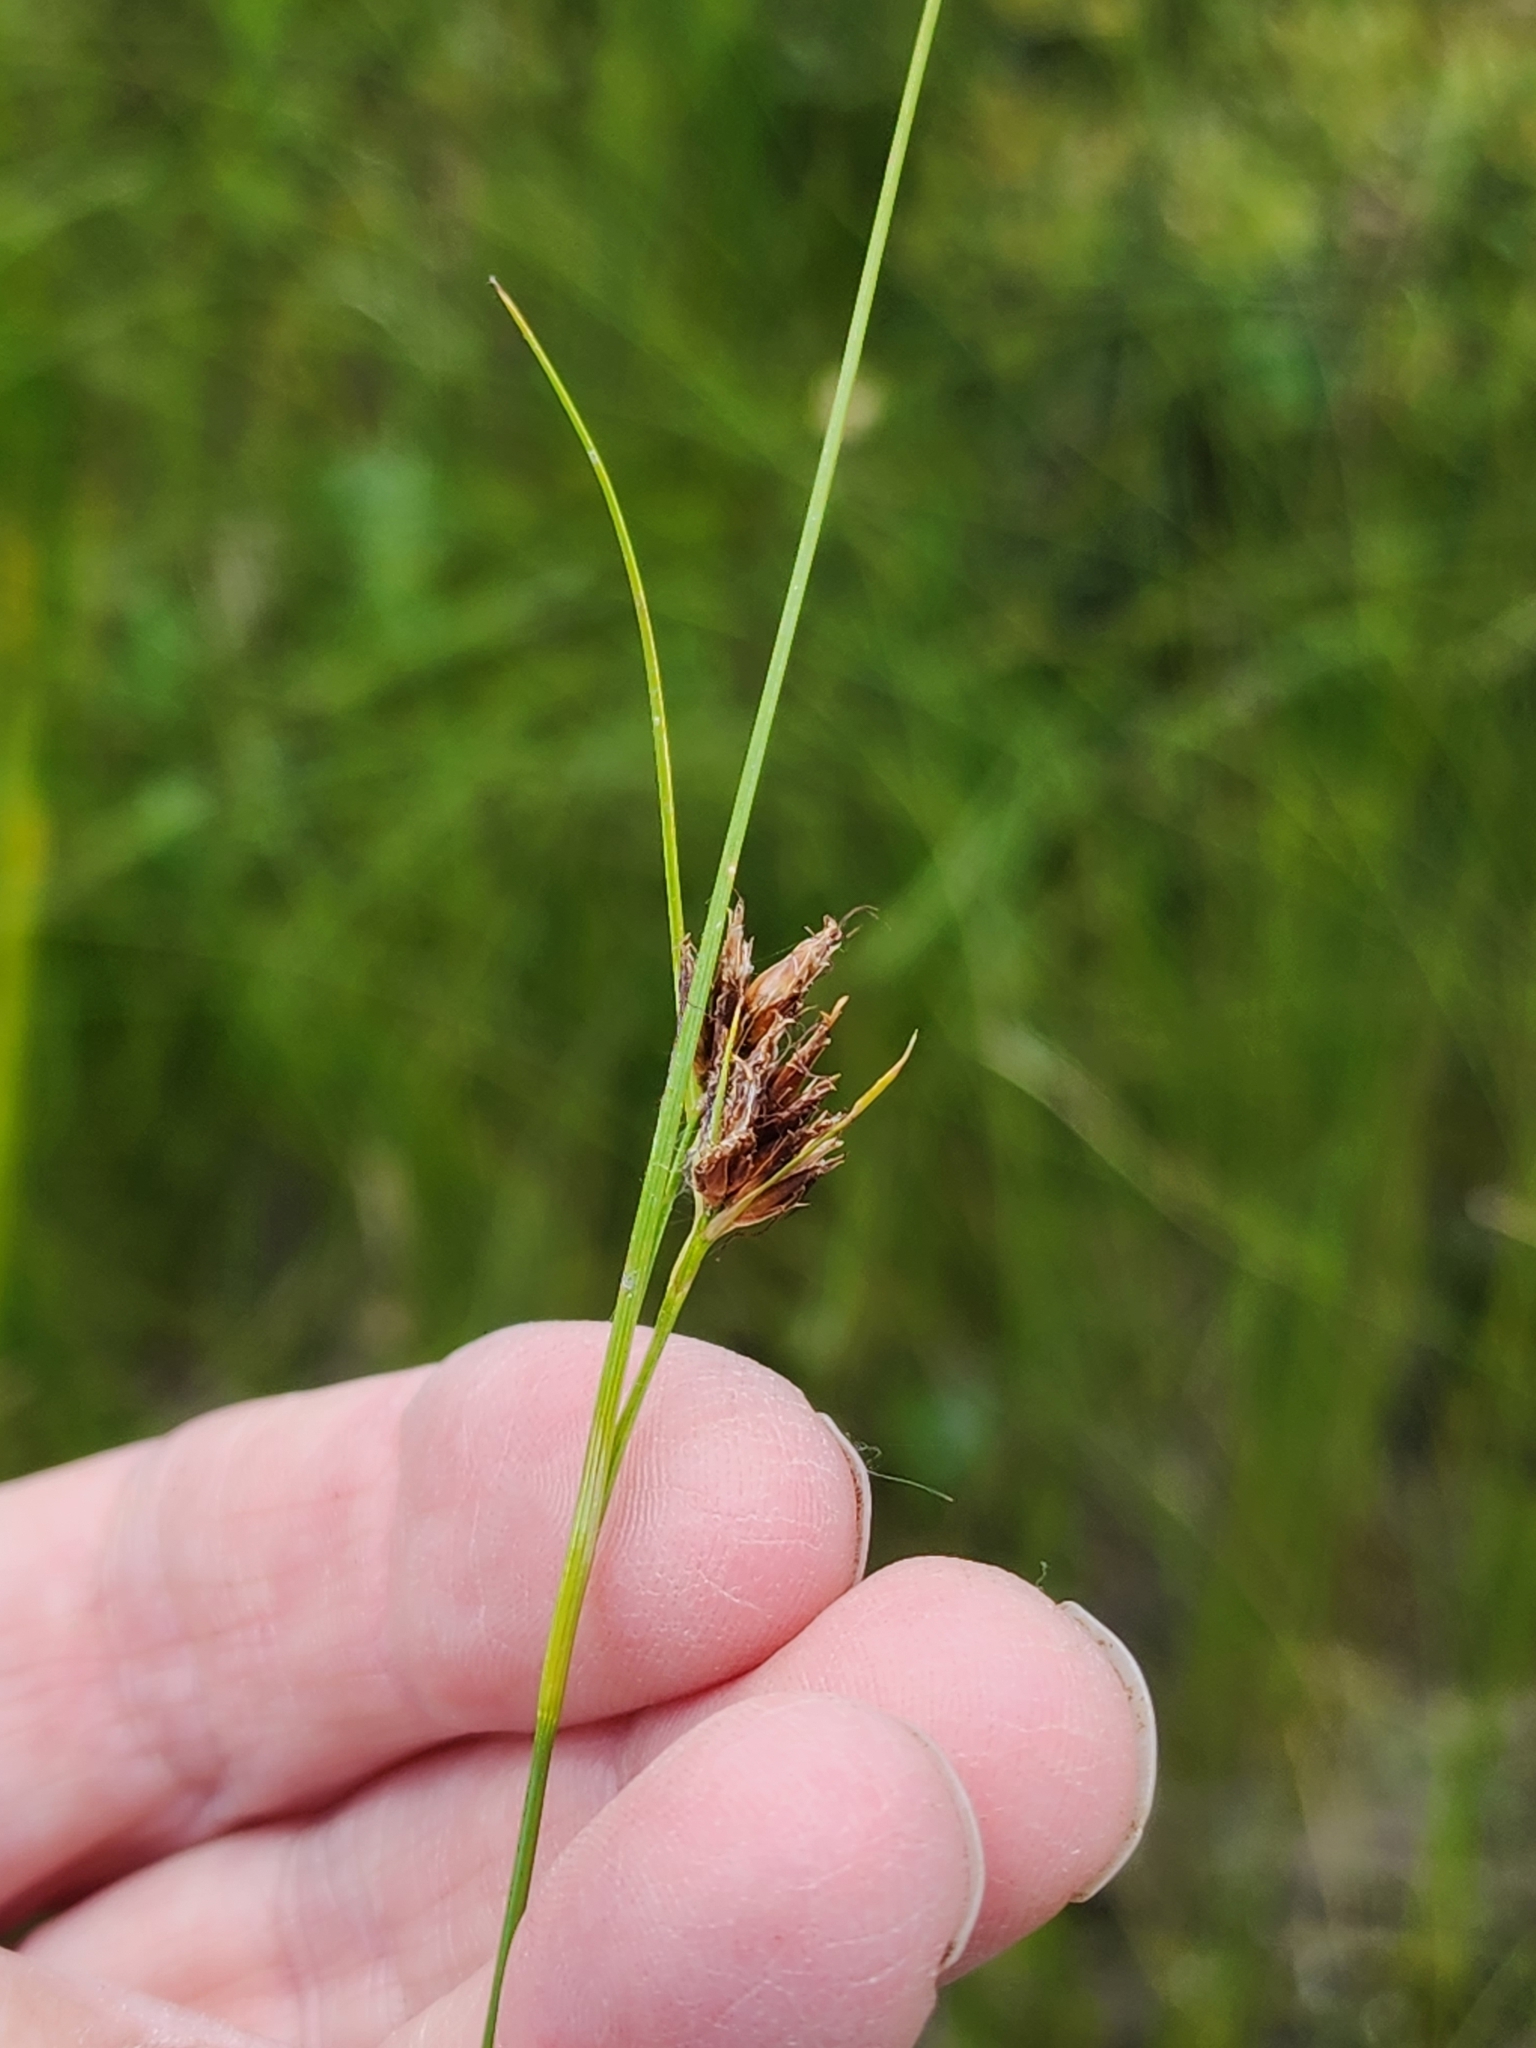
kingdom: Plantae
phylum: Tracheophyta
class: Liliopsida
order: Poales
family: Cyperaceae
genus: Rhynchospora
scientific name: Rhynchospora fusca
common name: Brown beak-sedge
